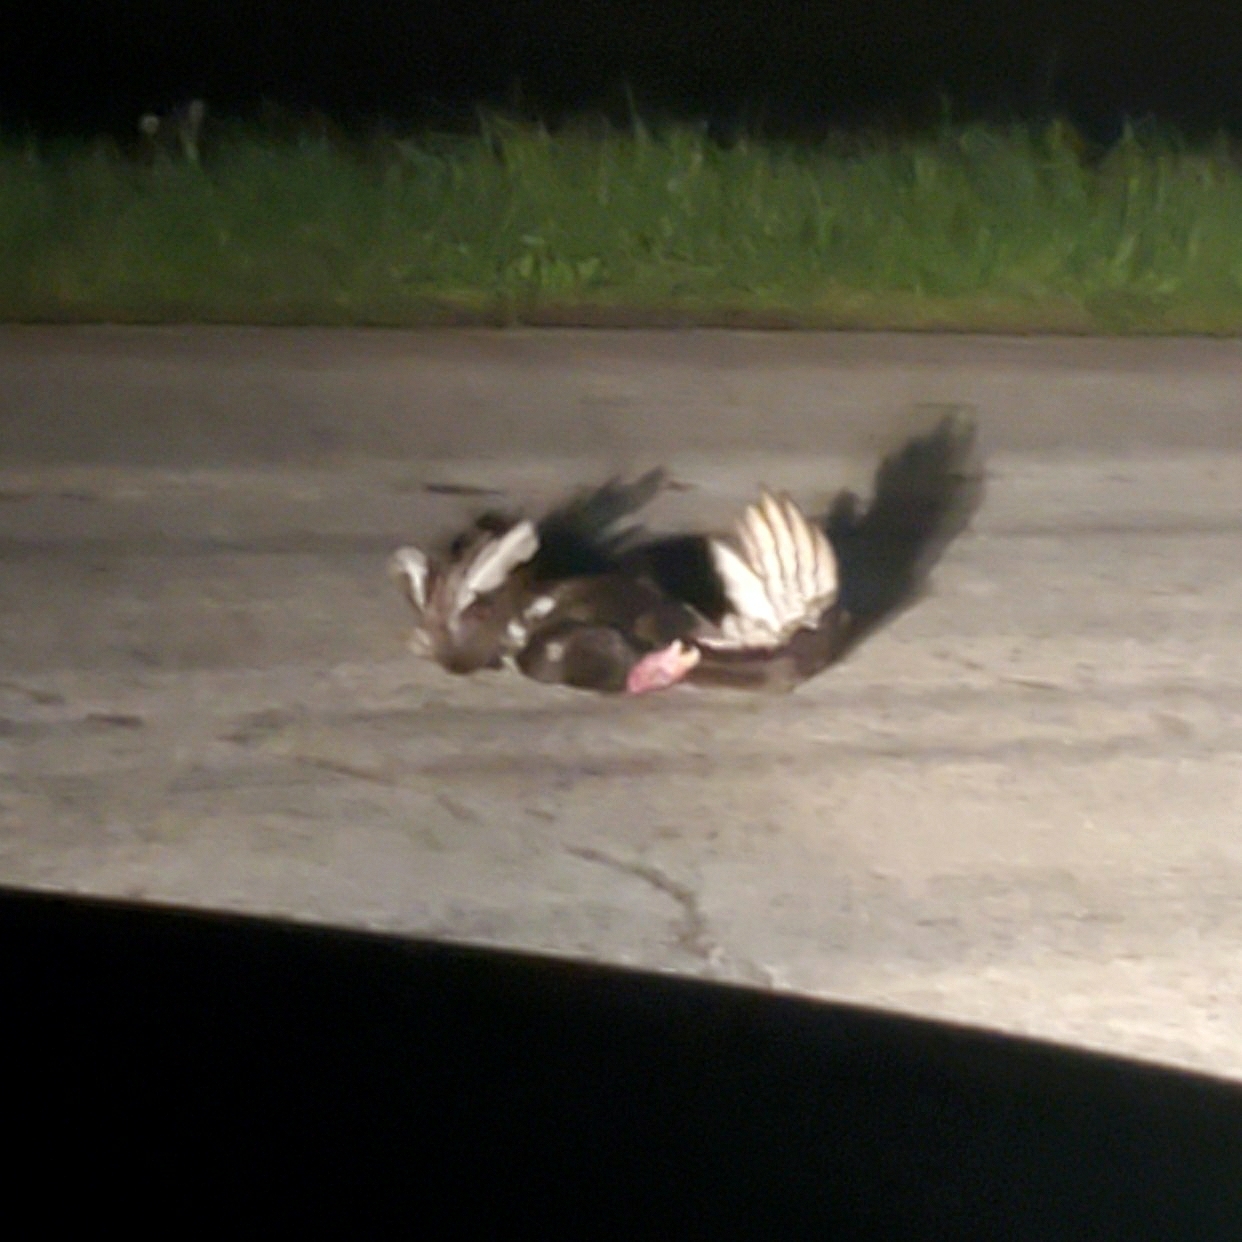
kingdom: Animalia
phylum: Chordata
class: Aves
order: Accipitriformes
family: Cathartidae
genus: Cathartes
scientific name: Cathartes aura
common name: Turkey vulture
